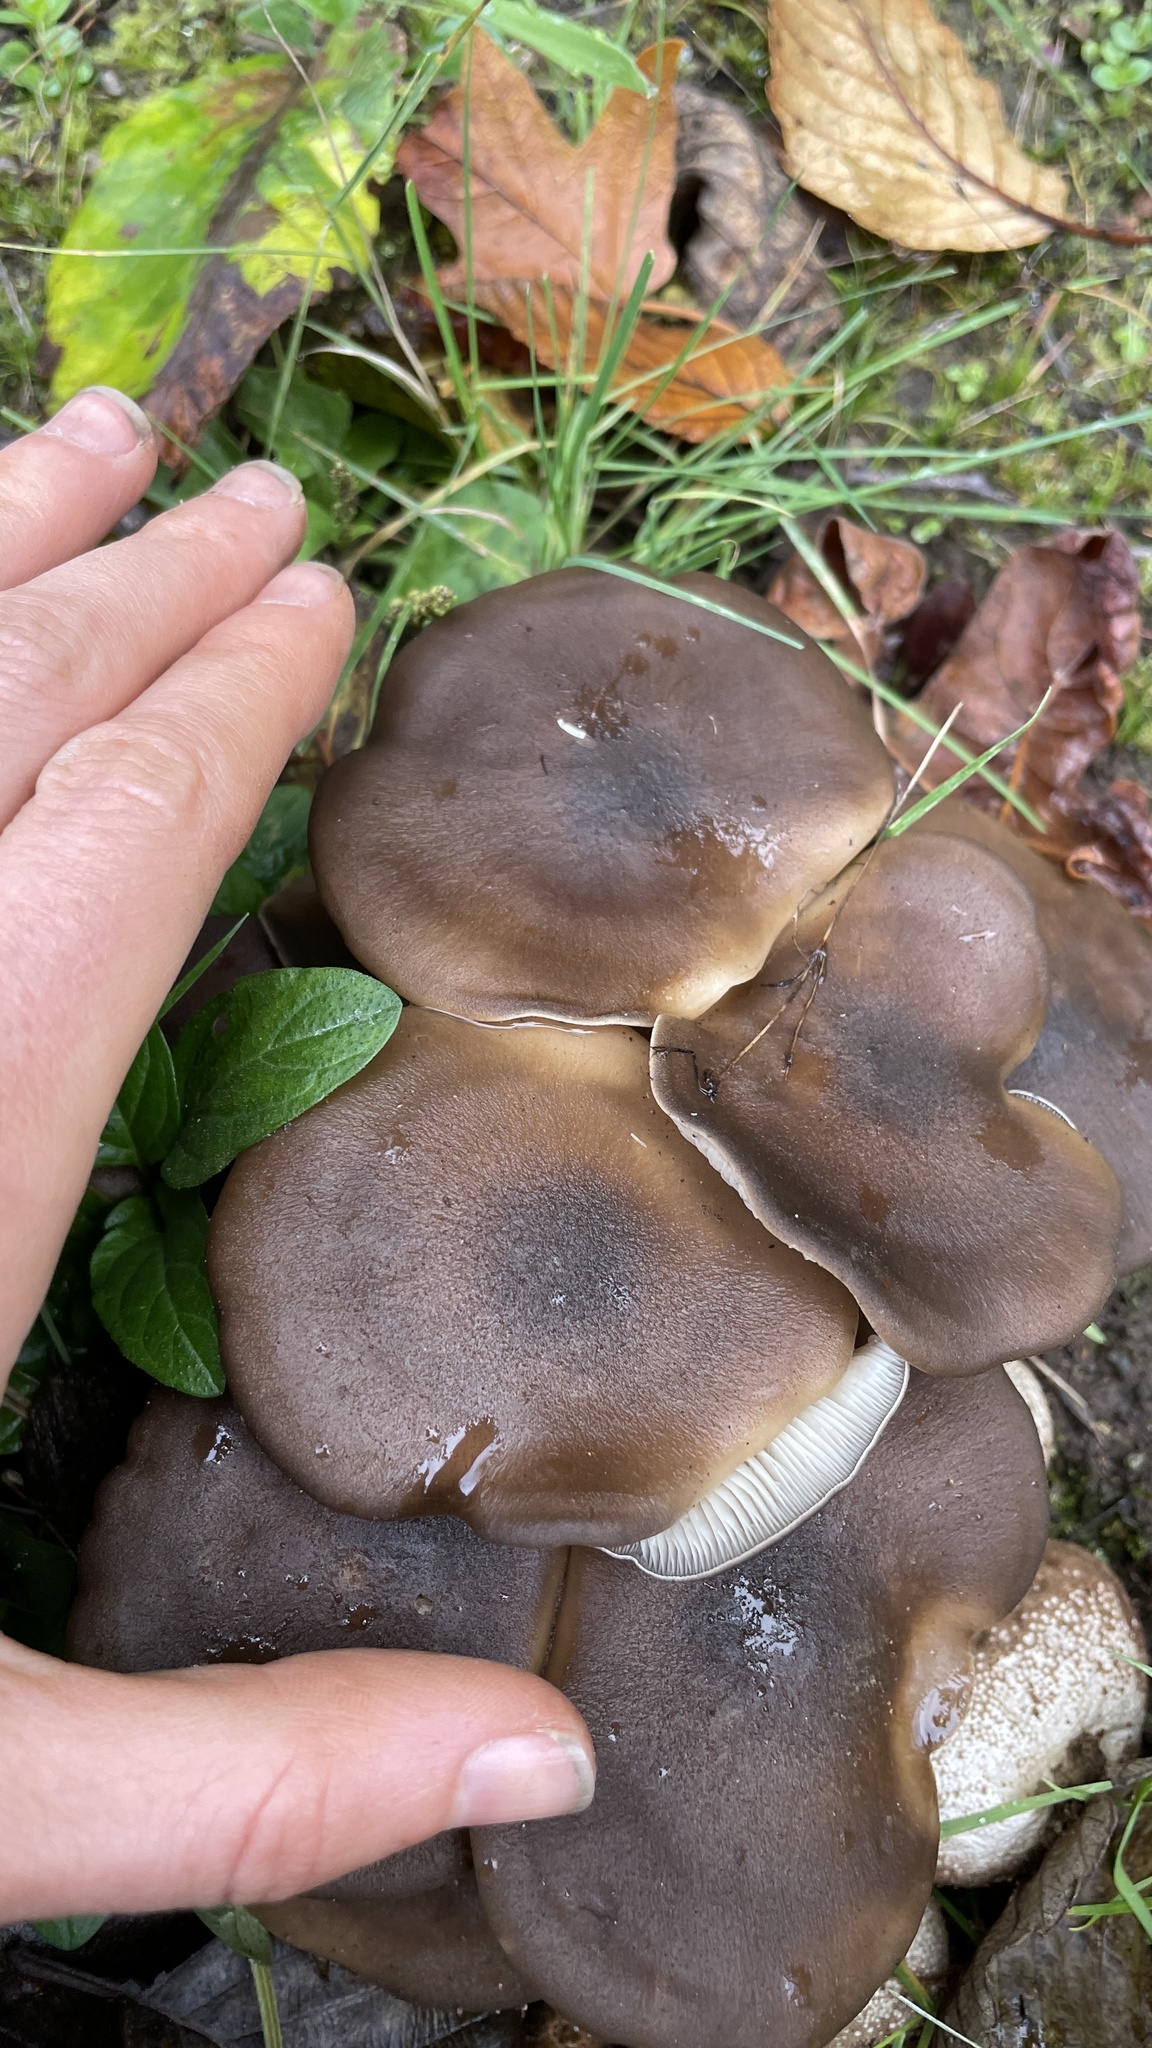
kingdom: Fungi
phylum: Basidiomycota
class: Agaricomycetes
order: Agaricales
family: Lyophyllaceae
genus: Lyophyllum
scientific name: Lyophyllum decastes
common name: Clustered domecap
